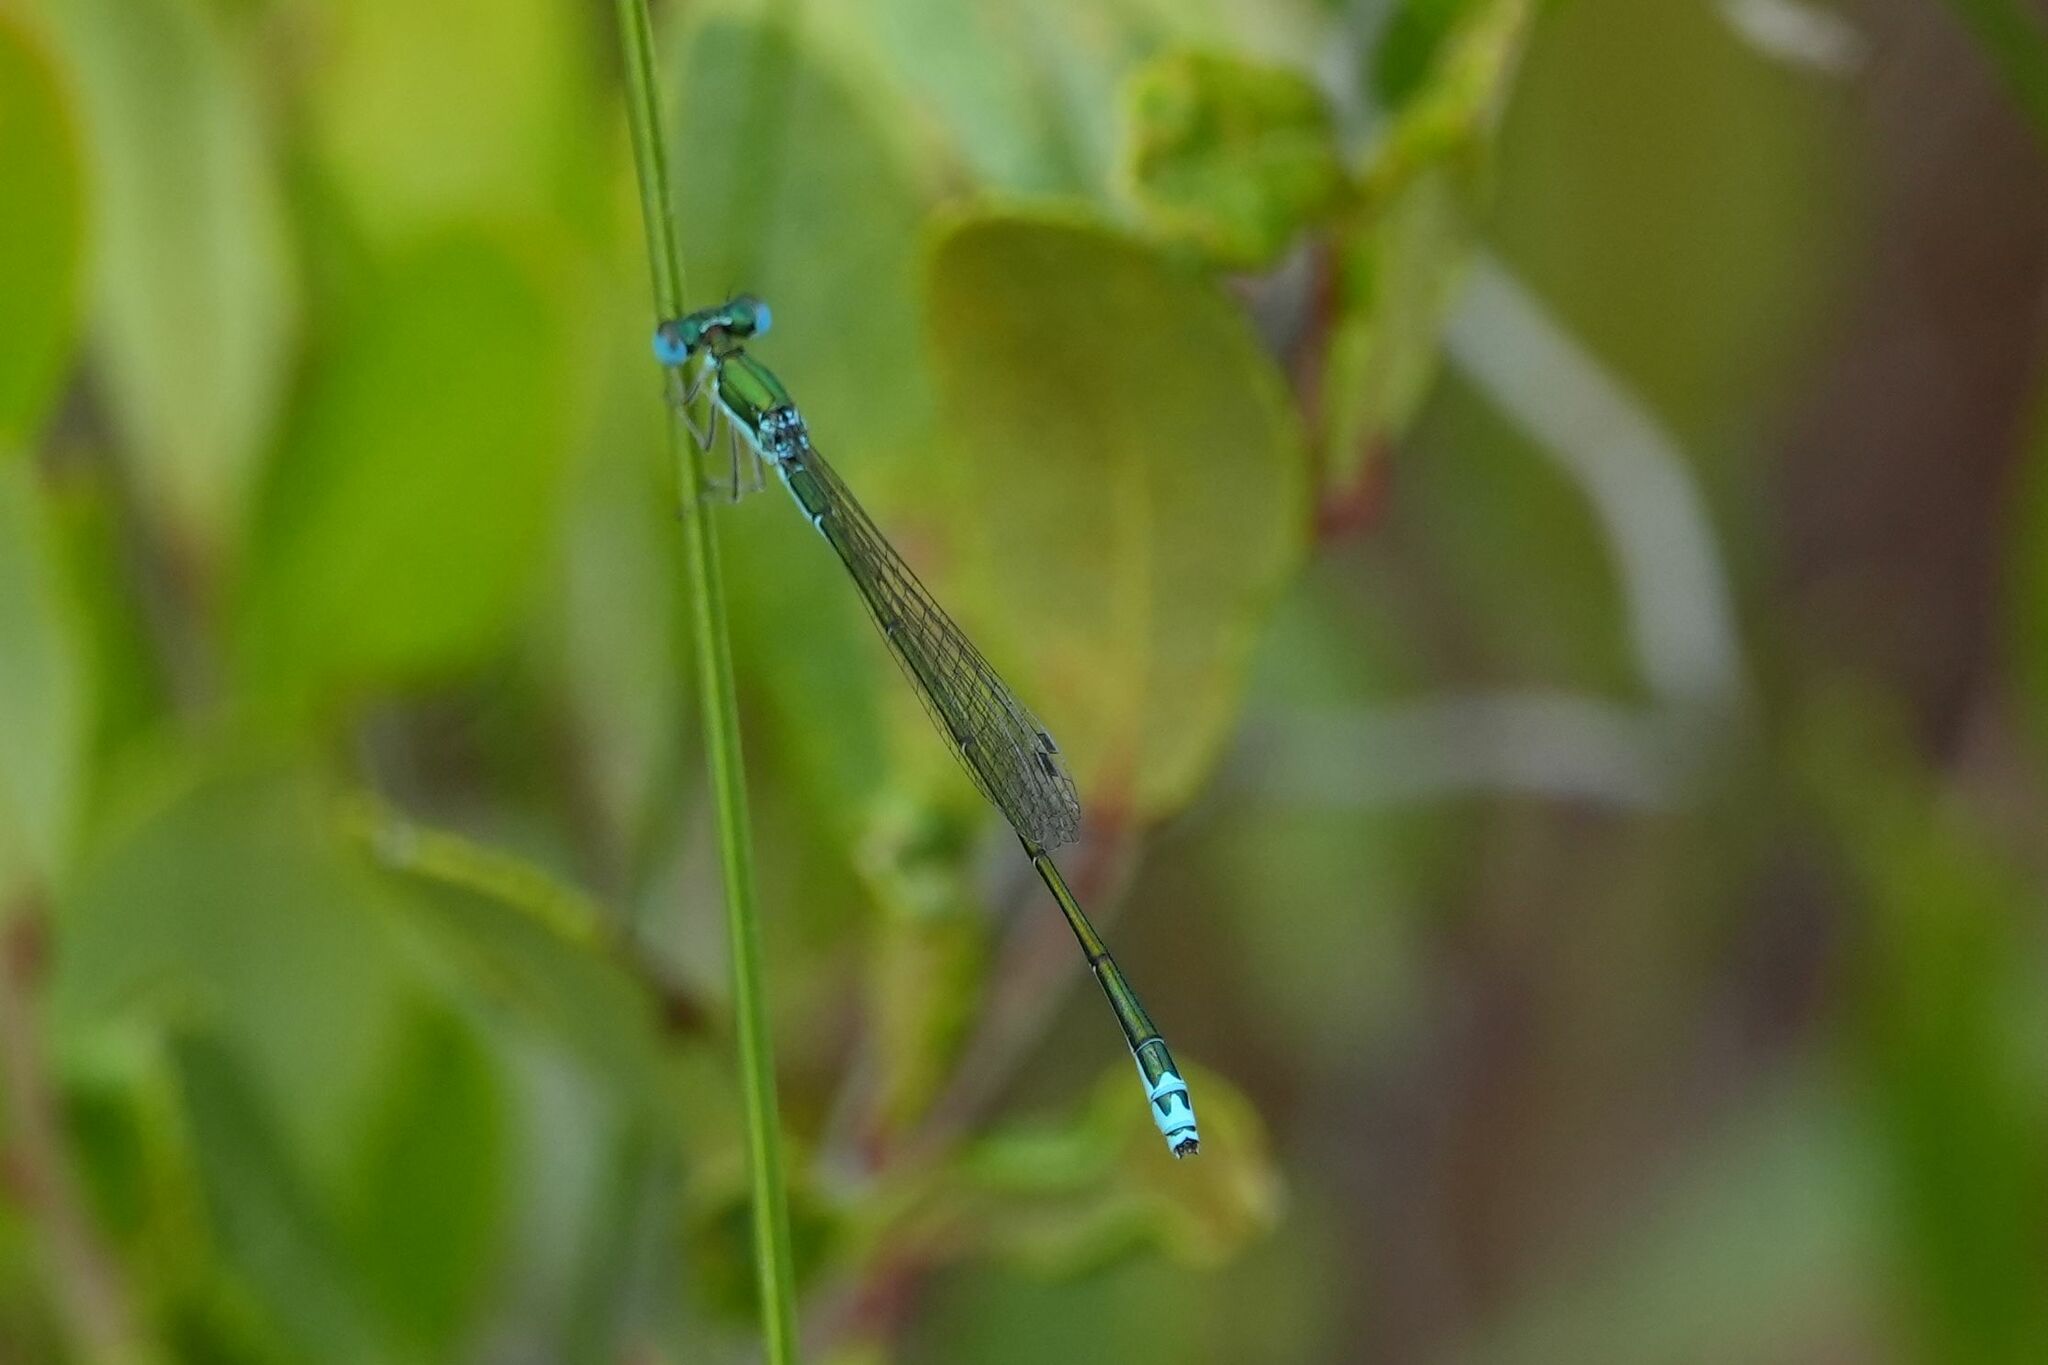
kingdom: Animalia
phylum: Arthropoda
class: Insecta
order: Odonata
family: Coenagrionidae
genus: Nehalennia
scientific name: Nehalennia irene
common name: Sedge sprite
